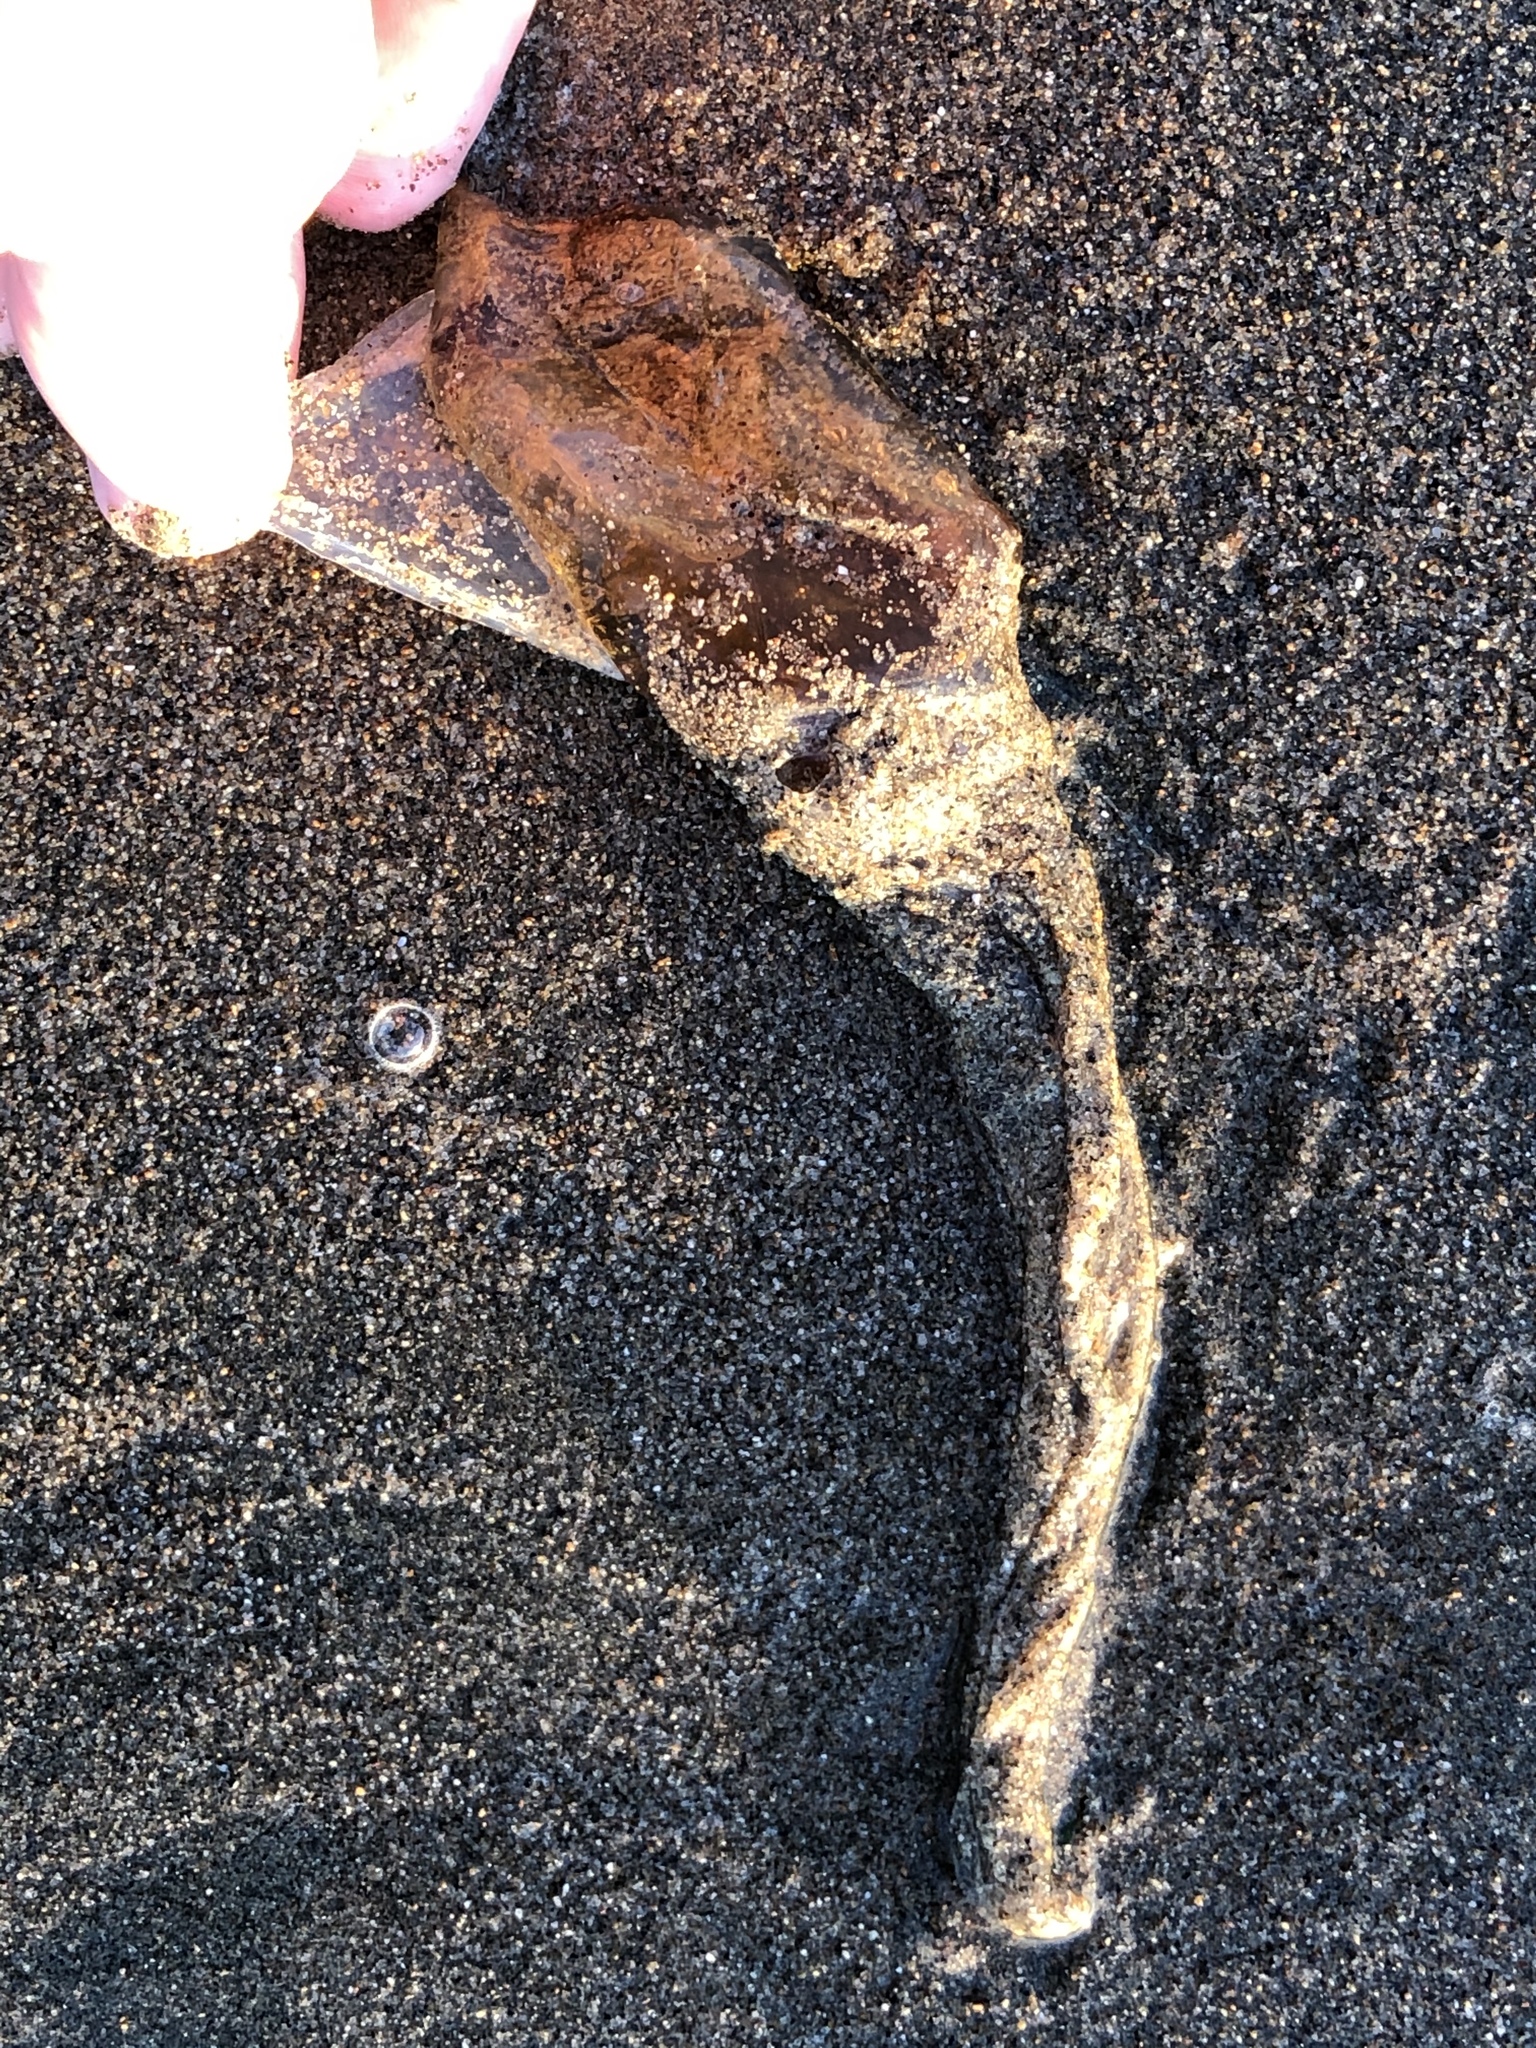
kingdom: Animalia
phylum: Cnidaria
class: Scyphozoa
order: Semaeostomeae
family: Pelagiidae
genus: Chrysaora
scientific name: Chrysaora fuscescens
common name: Sea nettle
